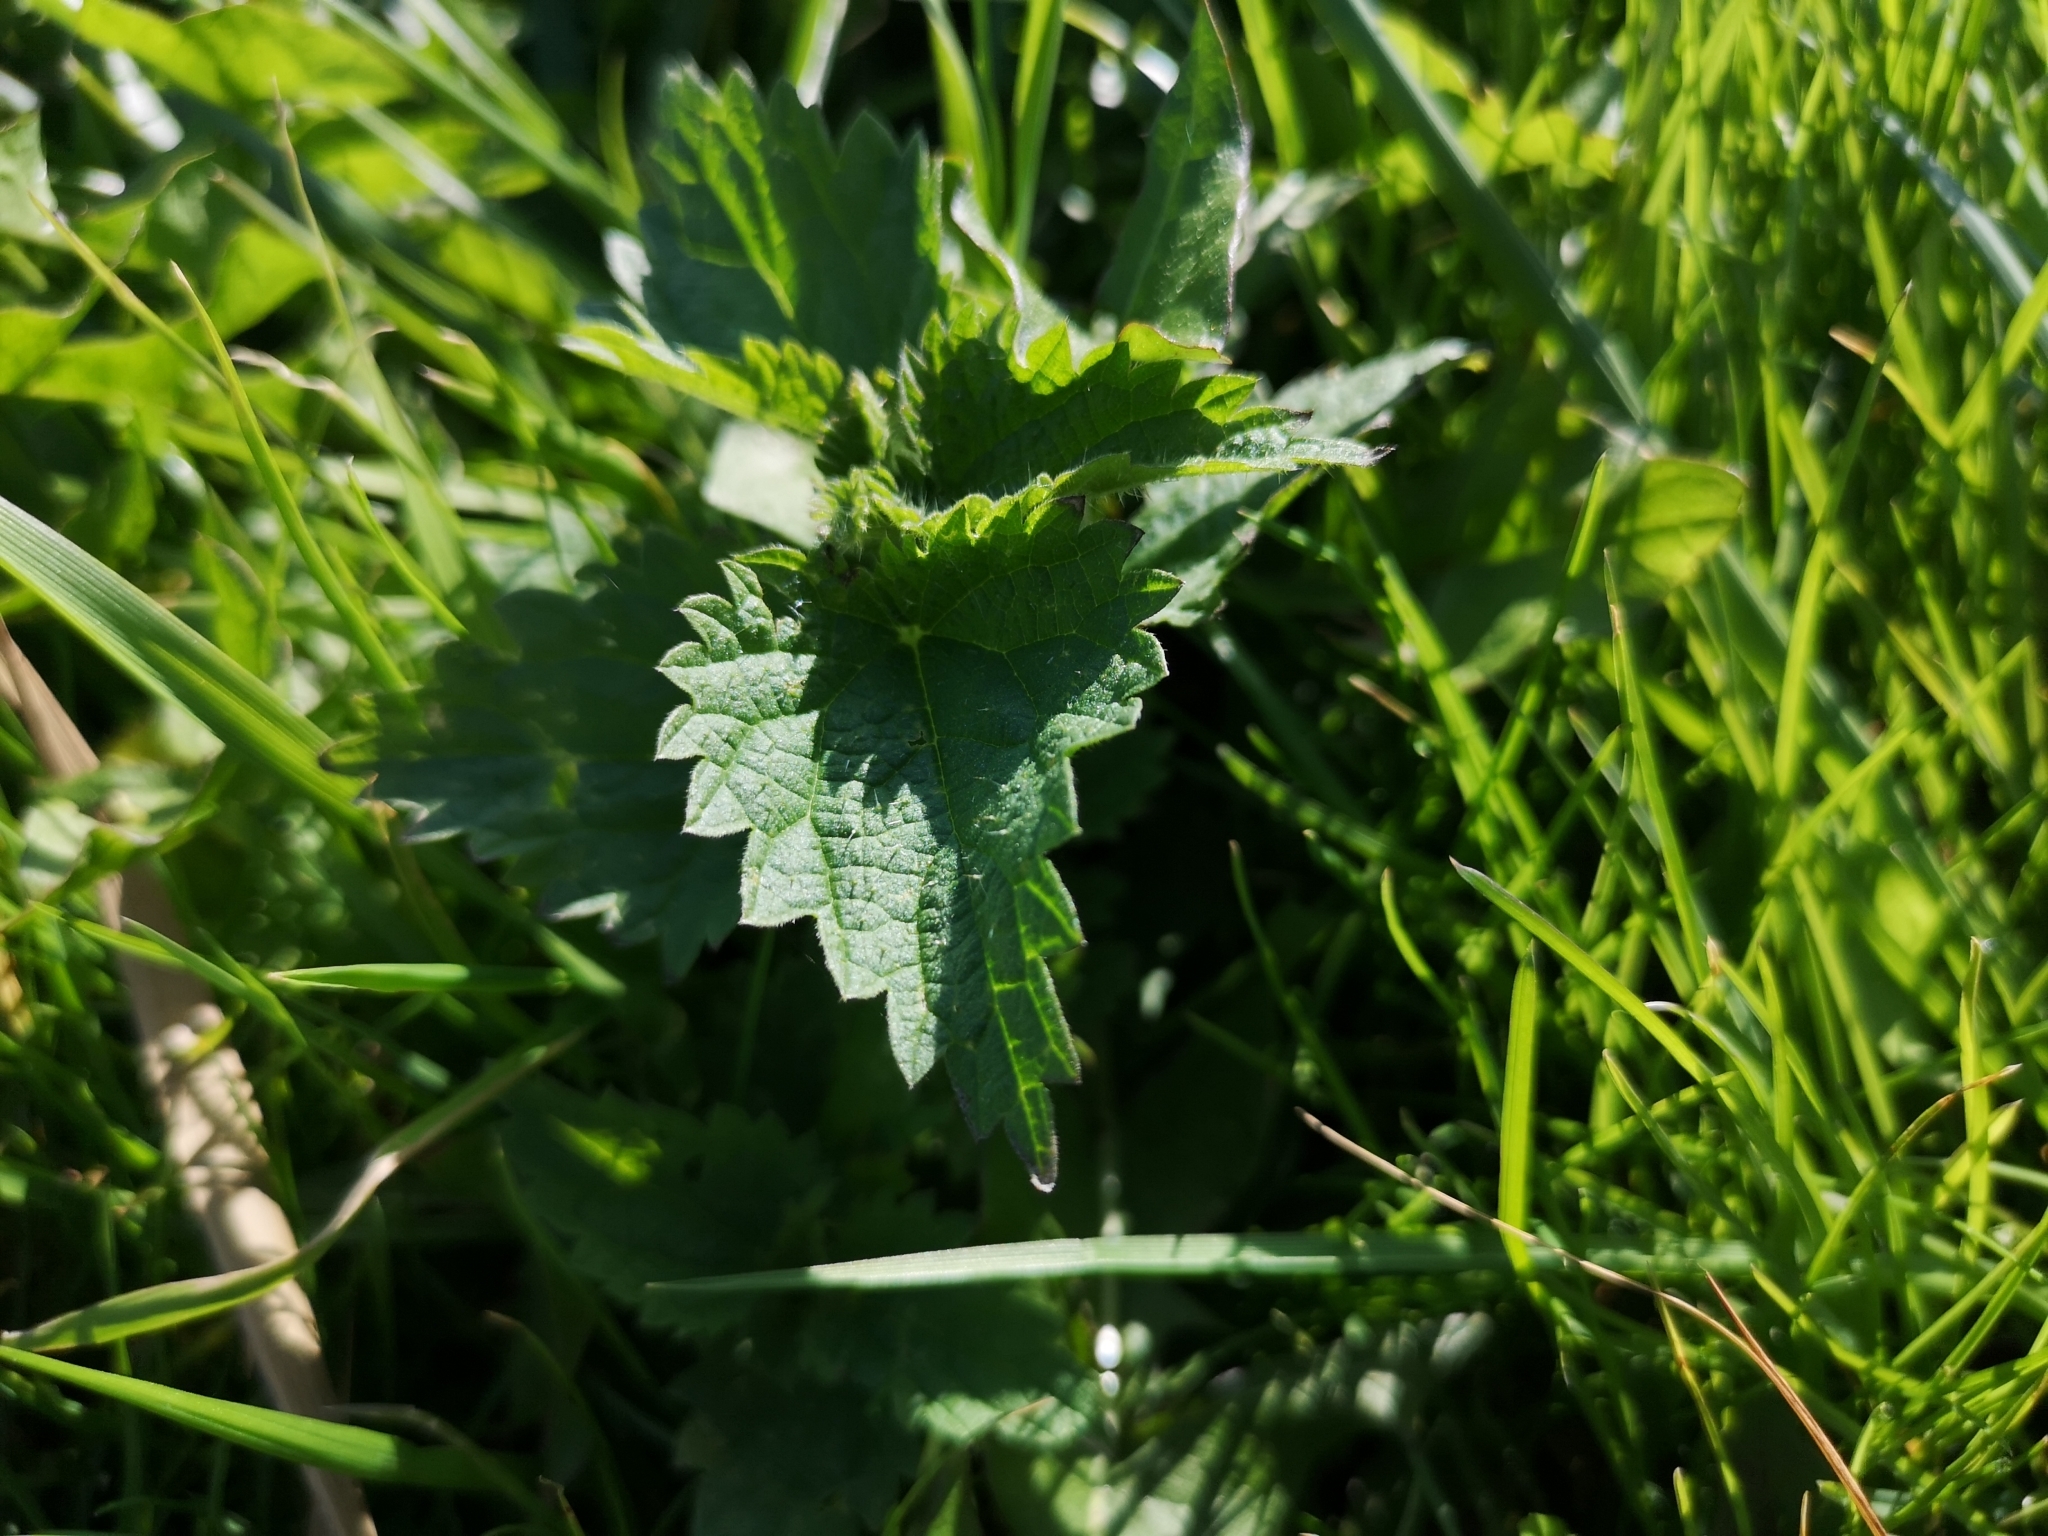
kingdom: Plantae
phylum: Tracheophyta
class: Magnoliopsida
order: Rosales
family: Urticaceae
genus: Urtica
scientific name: Urtica dioica
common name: Common nettle
